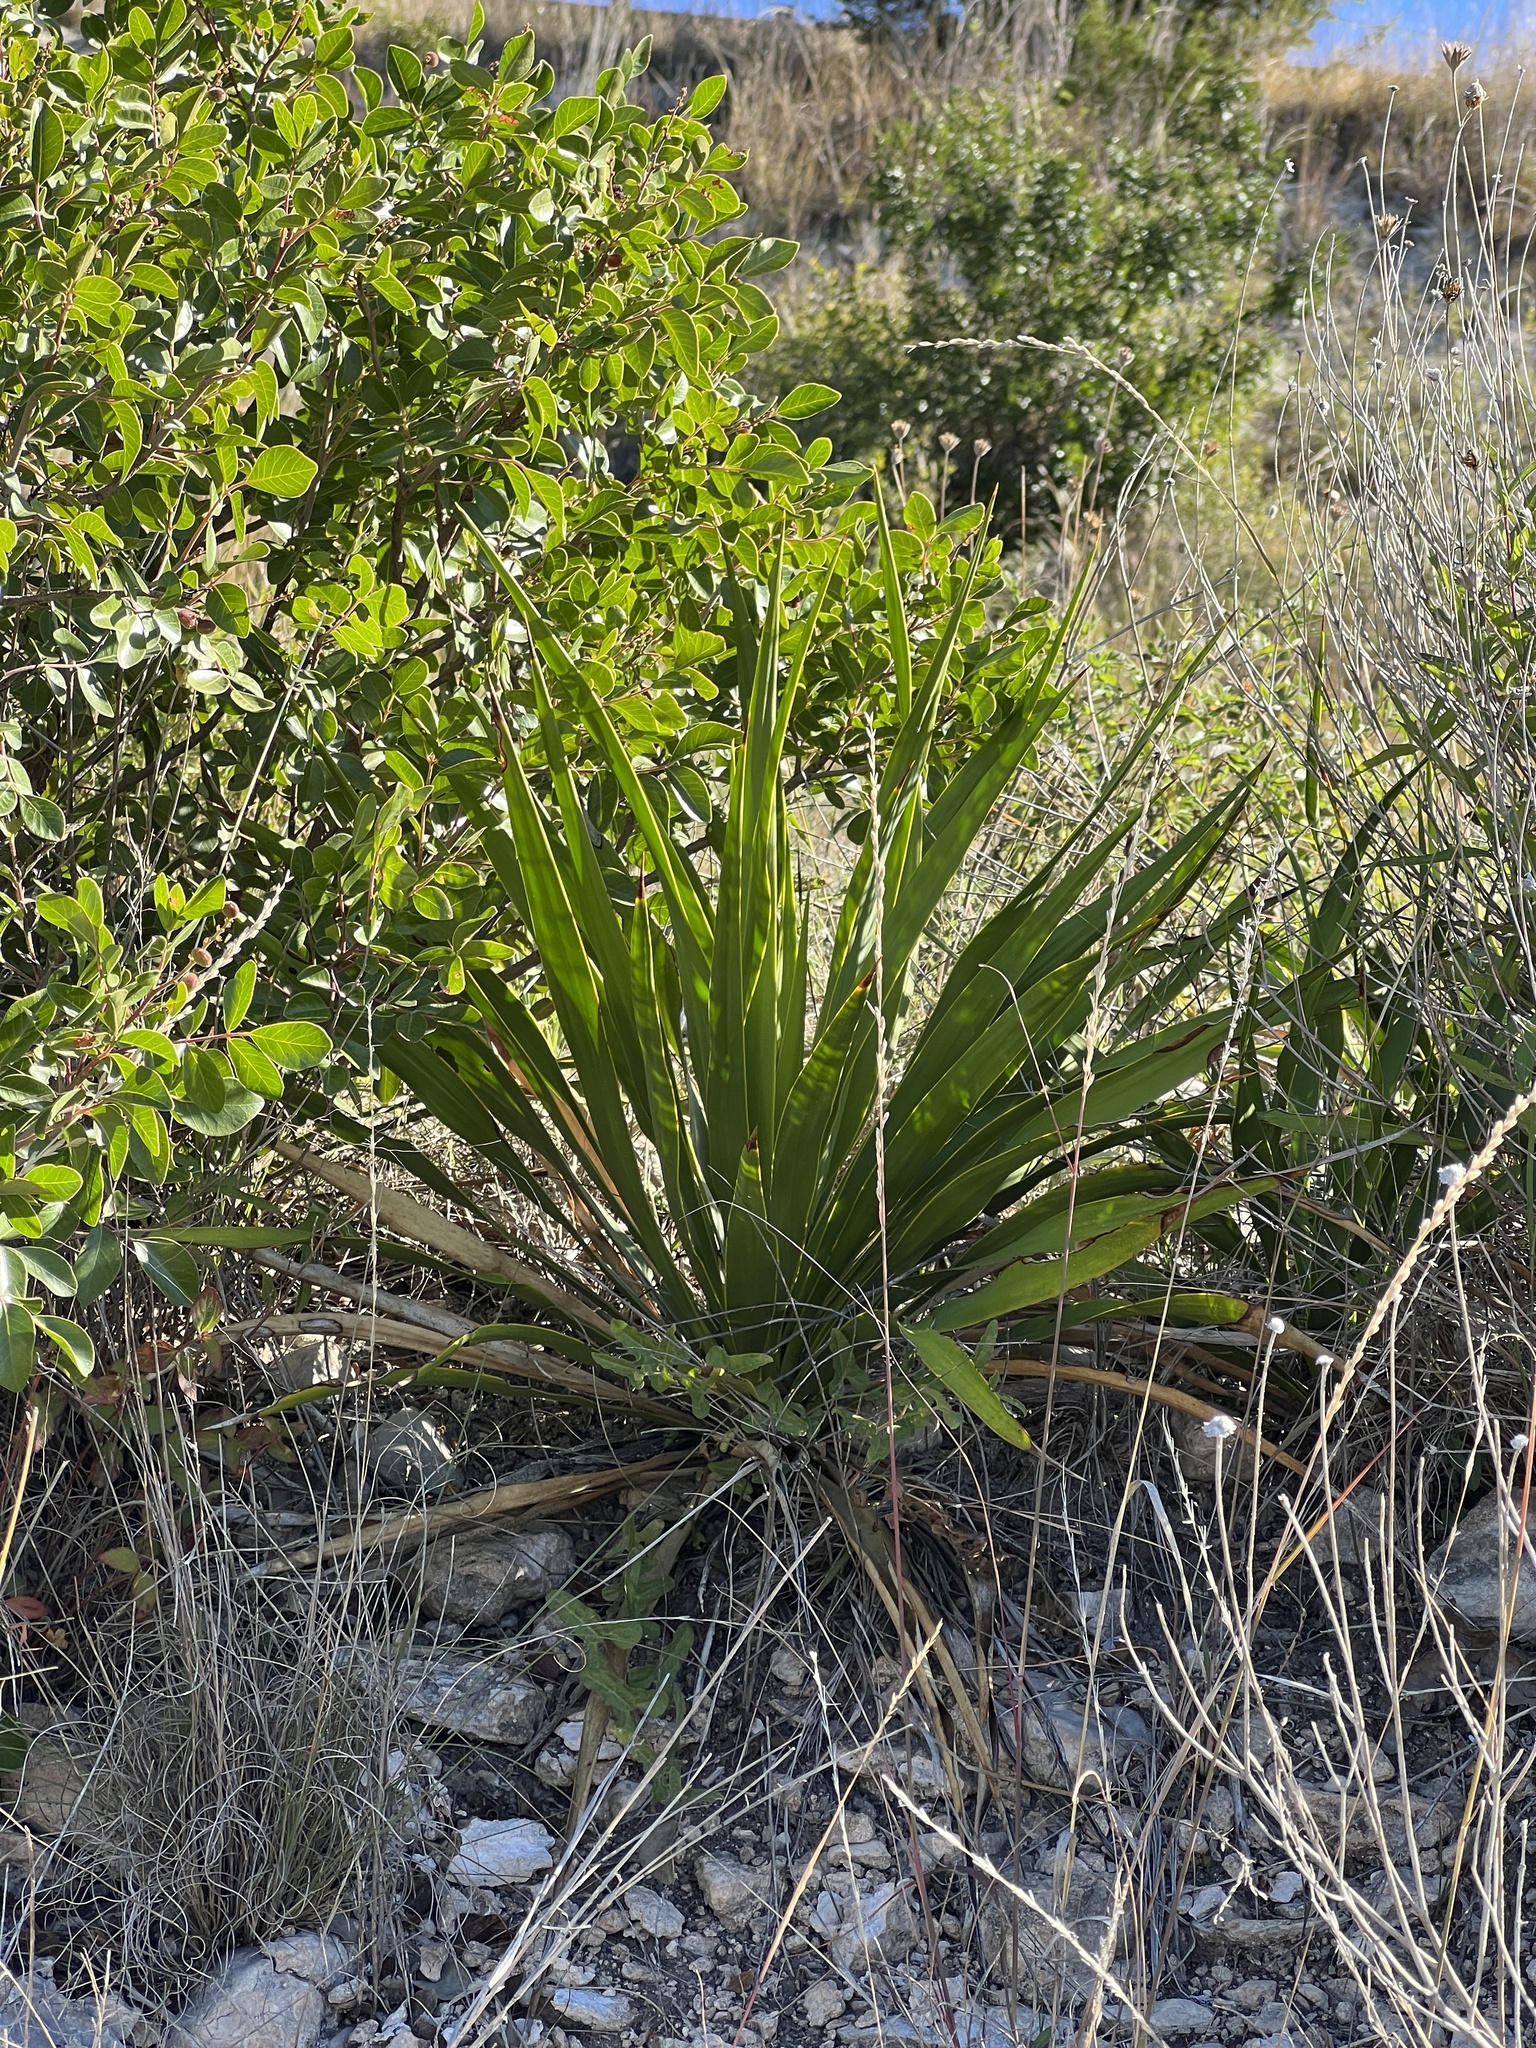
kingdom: Plantae
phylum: Tracheophyta
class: Liliopsida
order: Asparagales
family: Asparagaceae
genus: Yucca
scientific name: Yucca rupicola
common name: Twisted-leaf spanish-dagger
